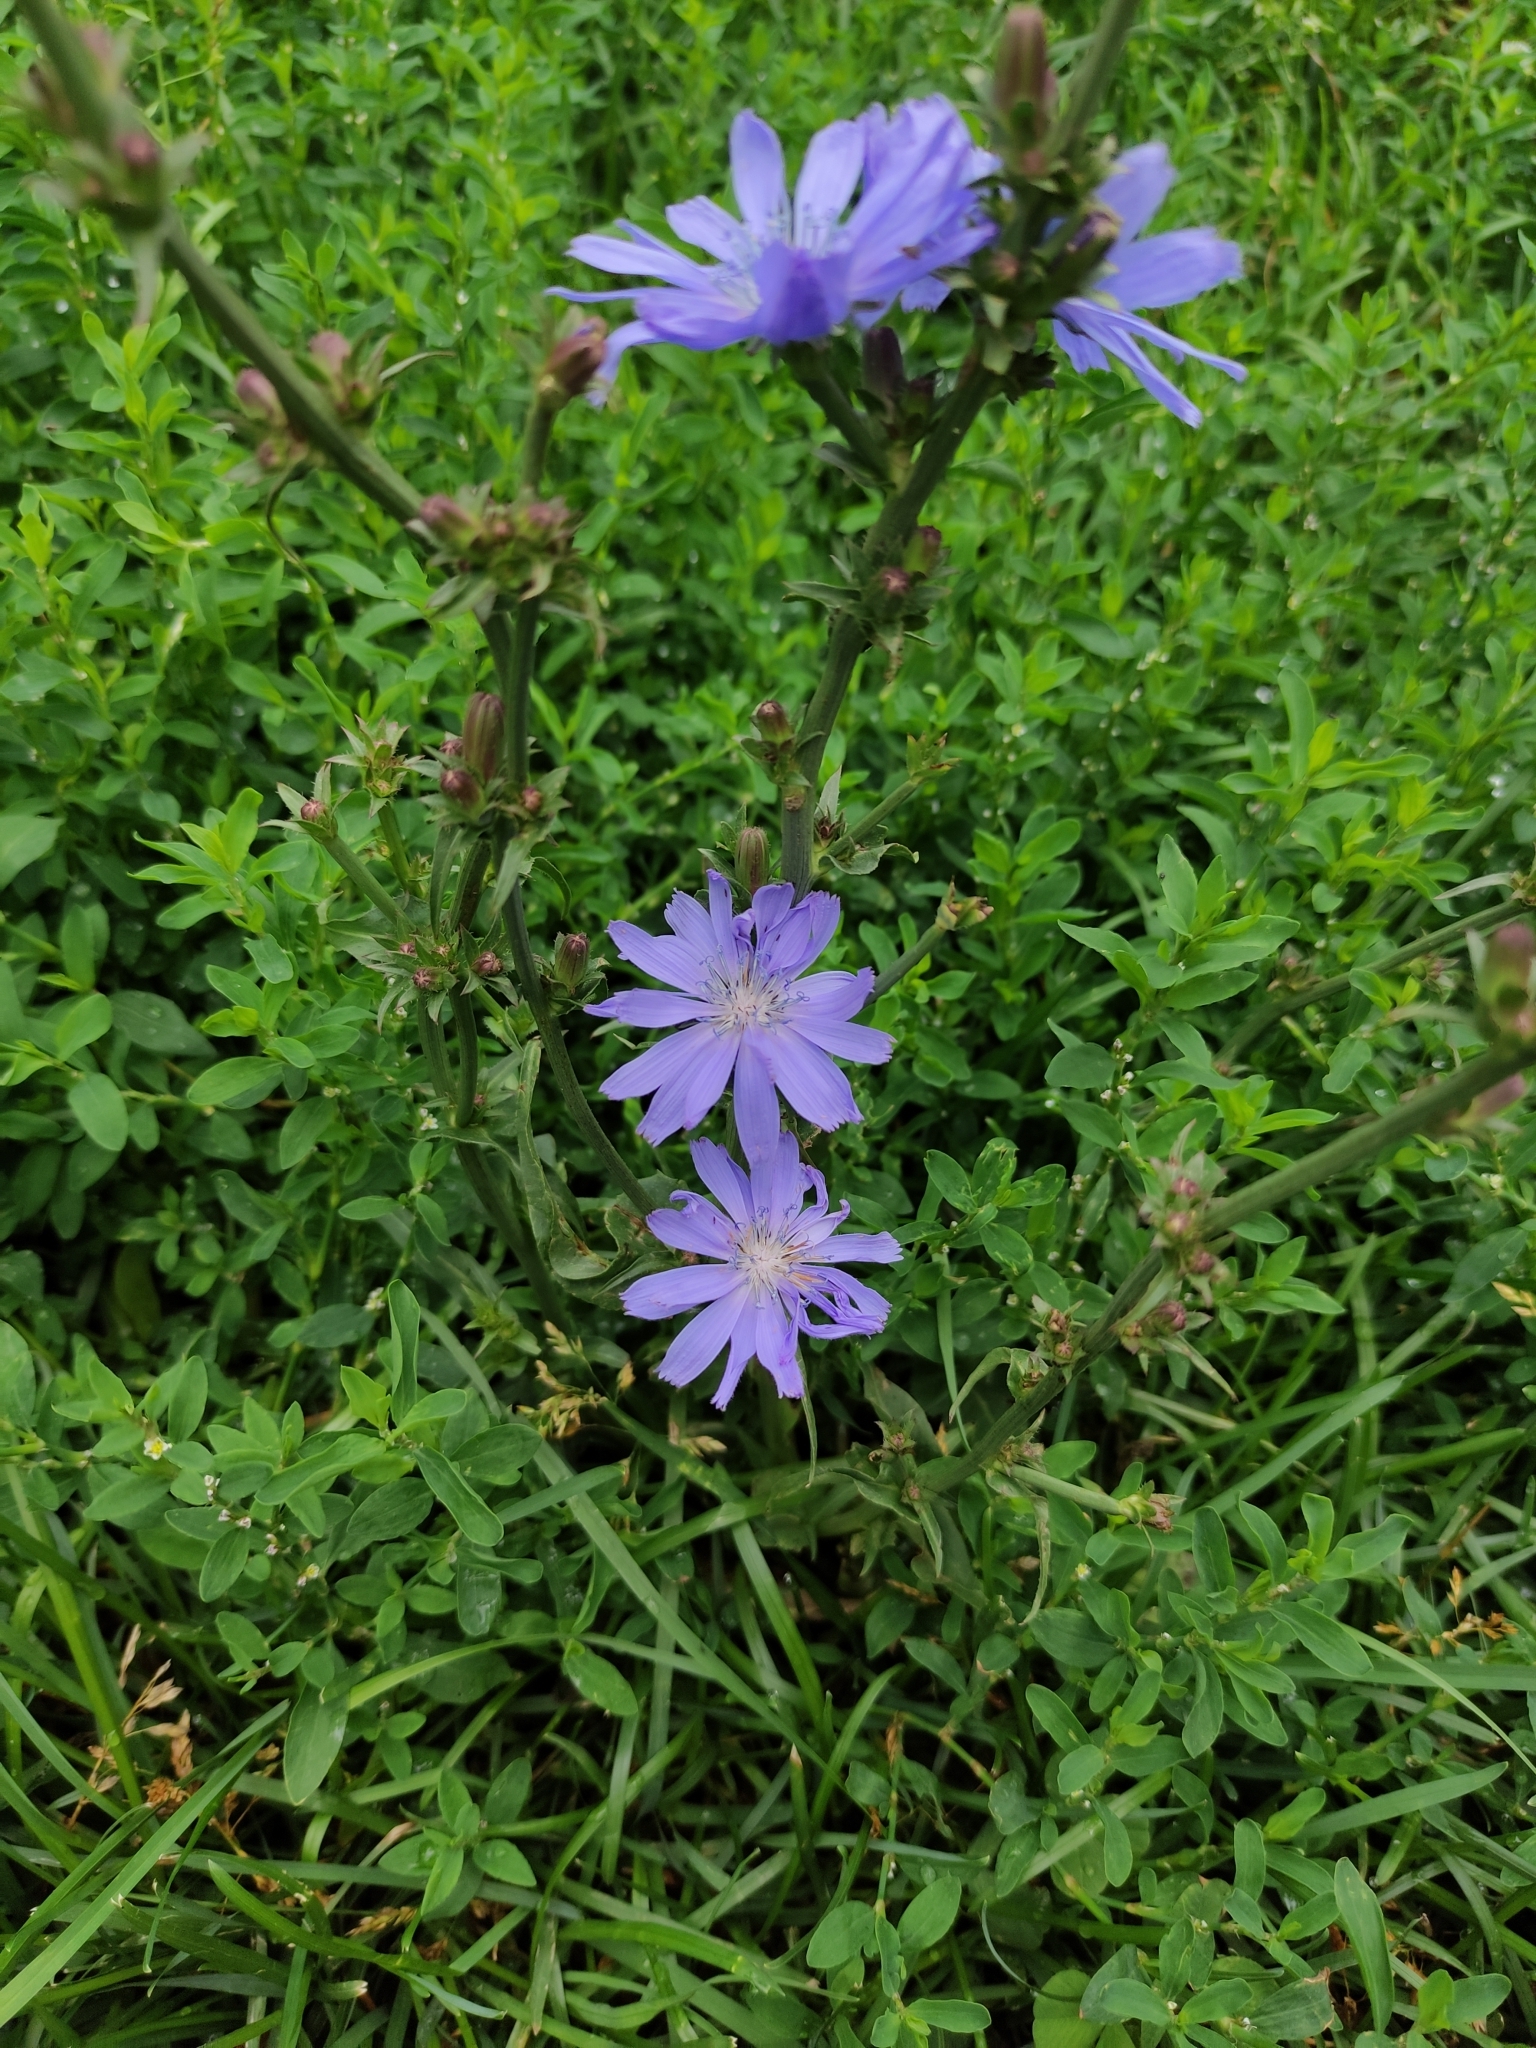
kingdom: Plantae
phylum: Tracheophyta
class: Magnoliopsida
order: Asterales
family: Asteraceae
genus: Cichorium
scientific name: Cichorium intybus
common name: Chicory
